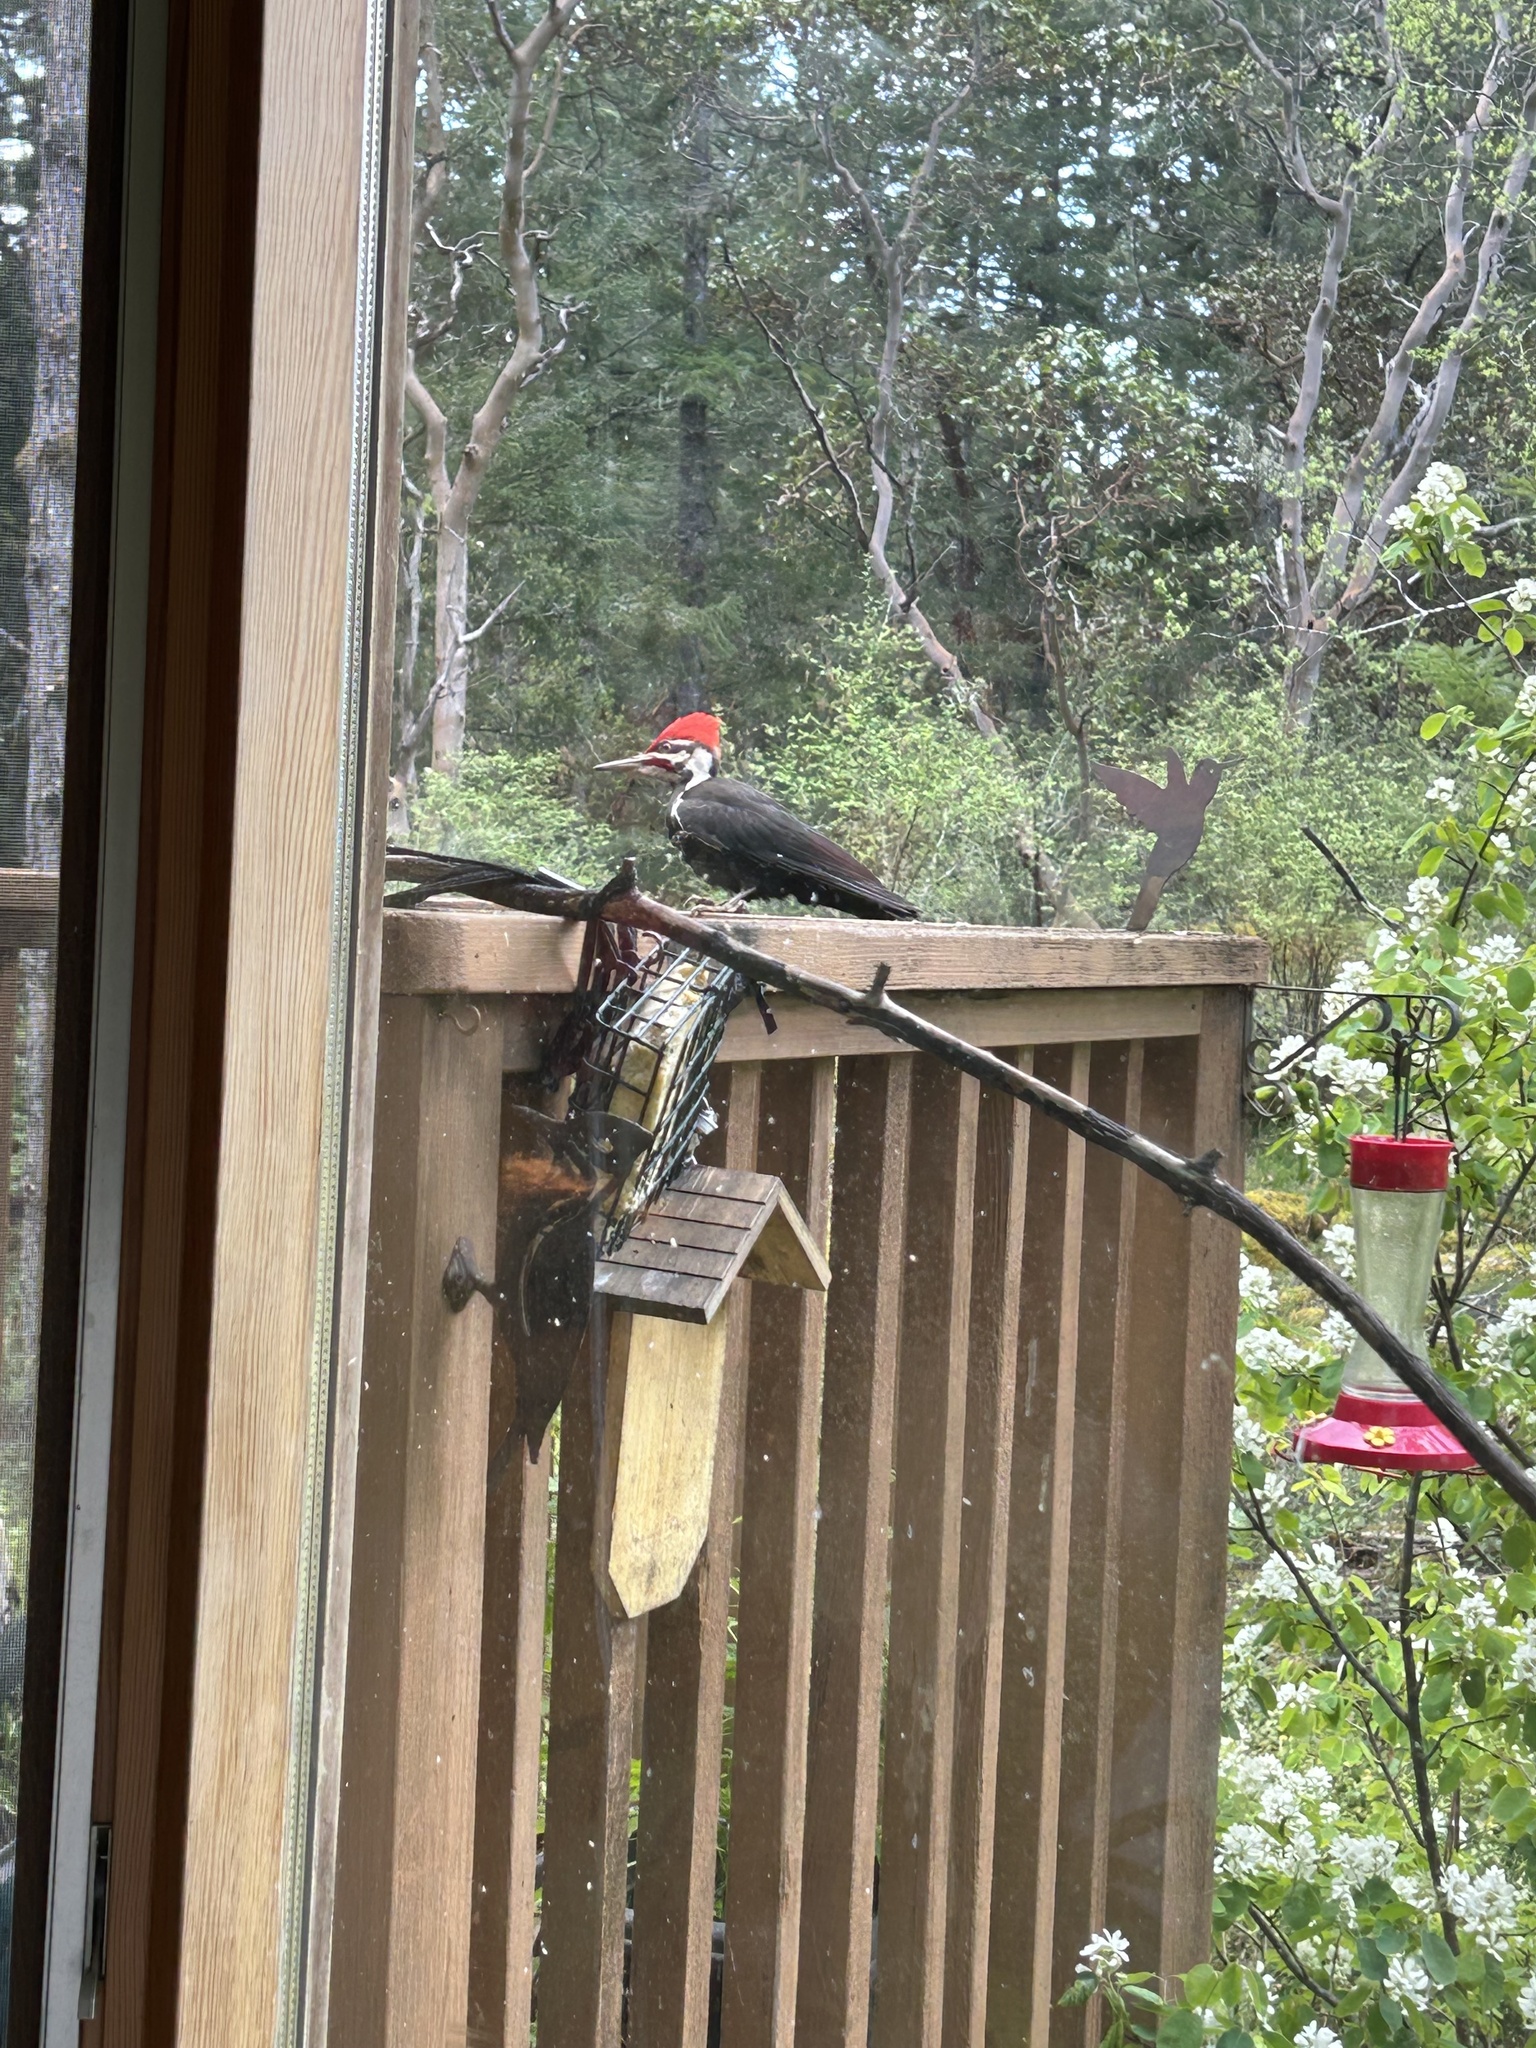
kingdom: Animalia
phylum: Chordata
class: Aves
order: Piciformes
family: Picidae
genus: Dryocopus
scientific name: Dryocopus pileatus
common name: Pileated woodpecker
